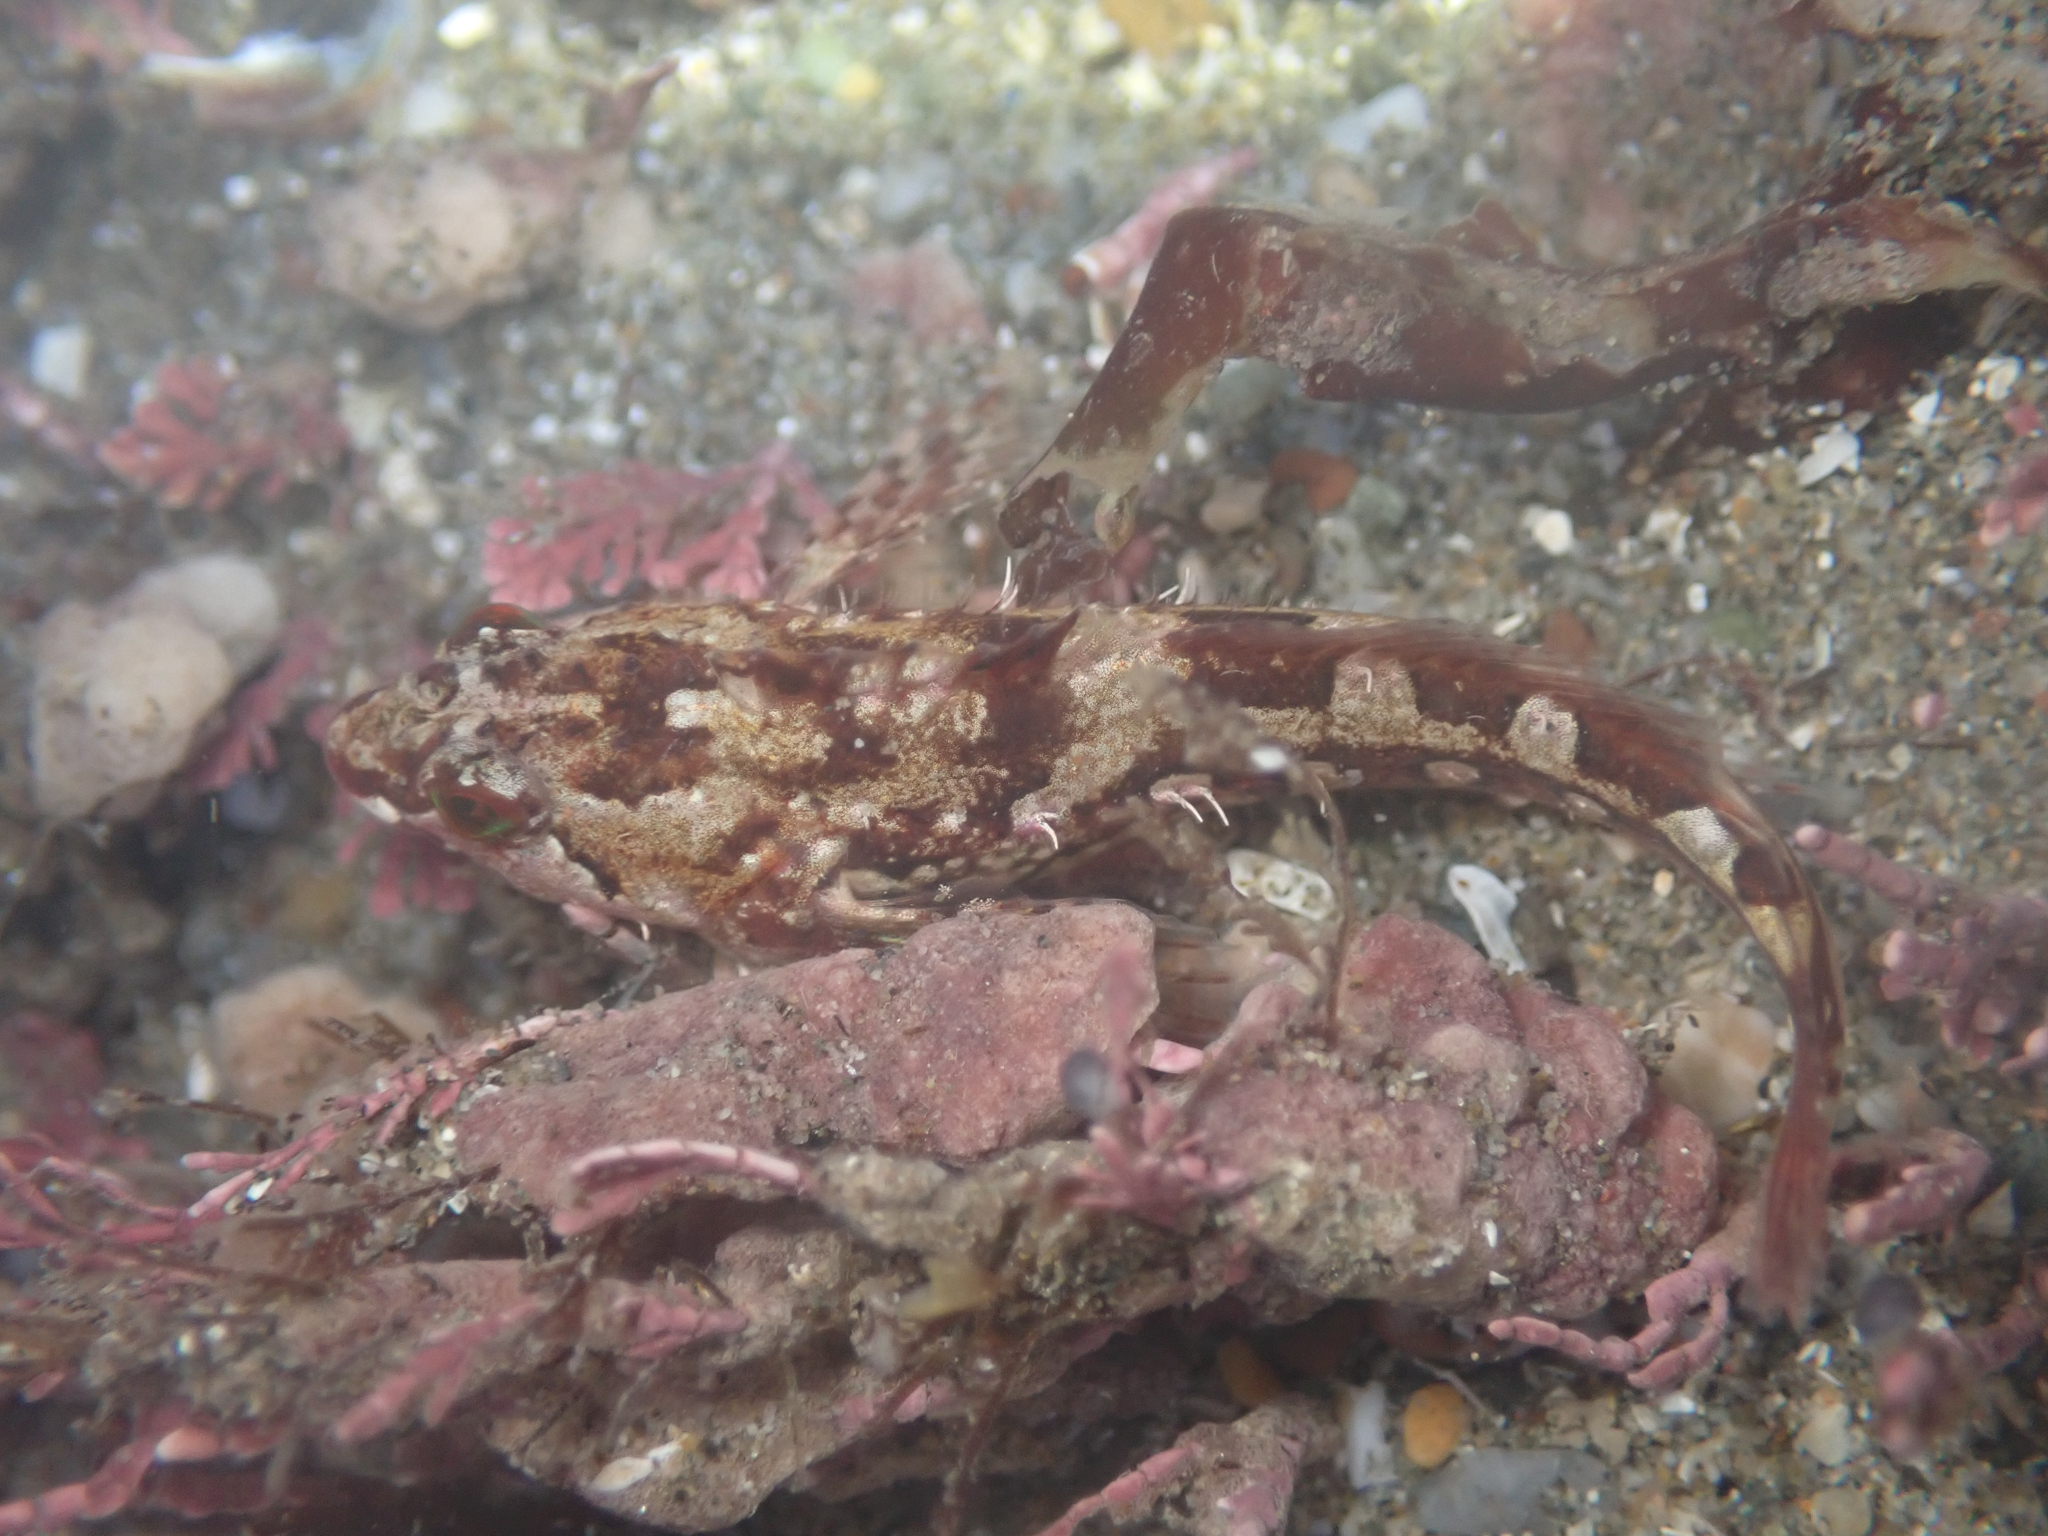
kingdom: Animalia
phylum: Chordata
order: Scorpaeniformes
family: Cottidae
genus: Oligocottus
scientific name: Oligocottus snyderi
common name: Fluffy sculpin
